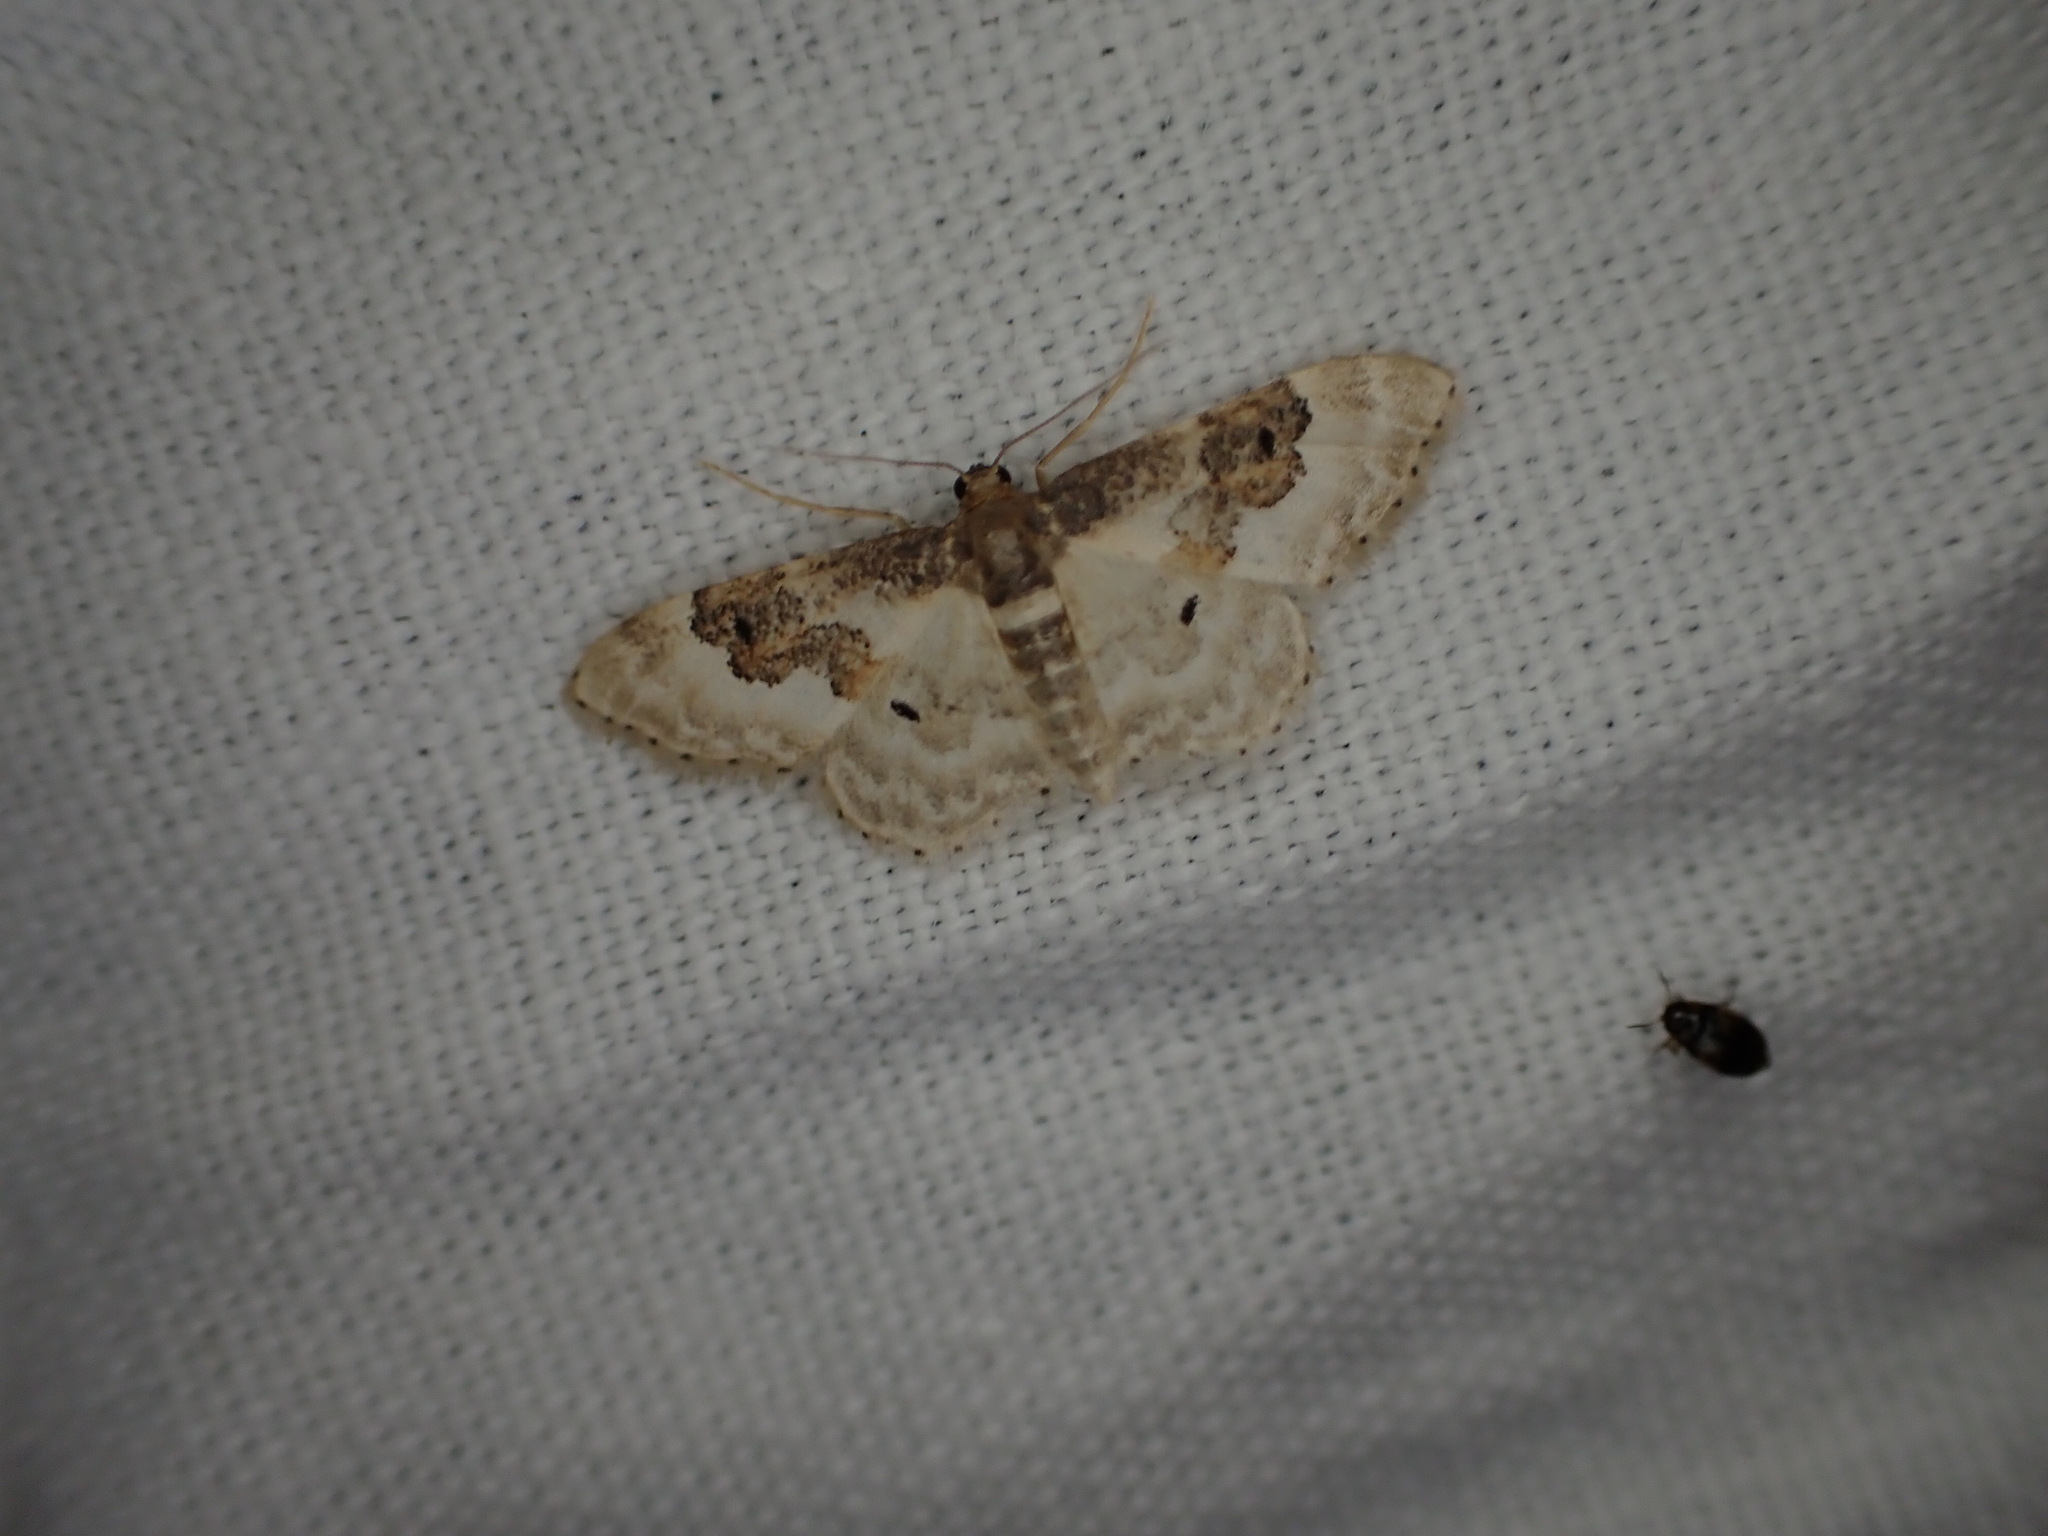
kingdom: Animalia
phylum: Arthropoda
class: Insecta
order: Lepidoptera
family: Geometridae
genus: Idaea
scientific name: Idaea rusticata
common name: Least carpet
